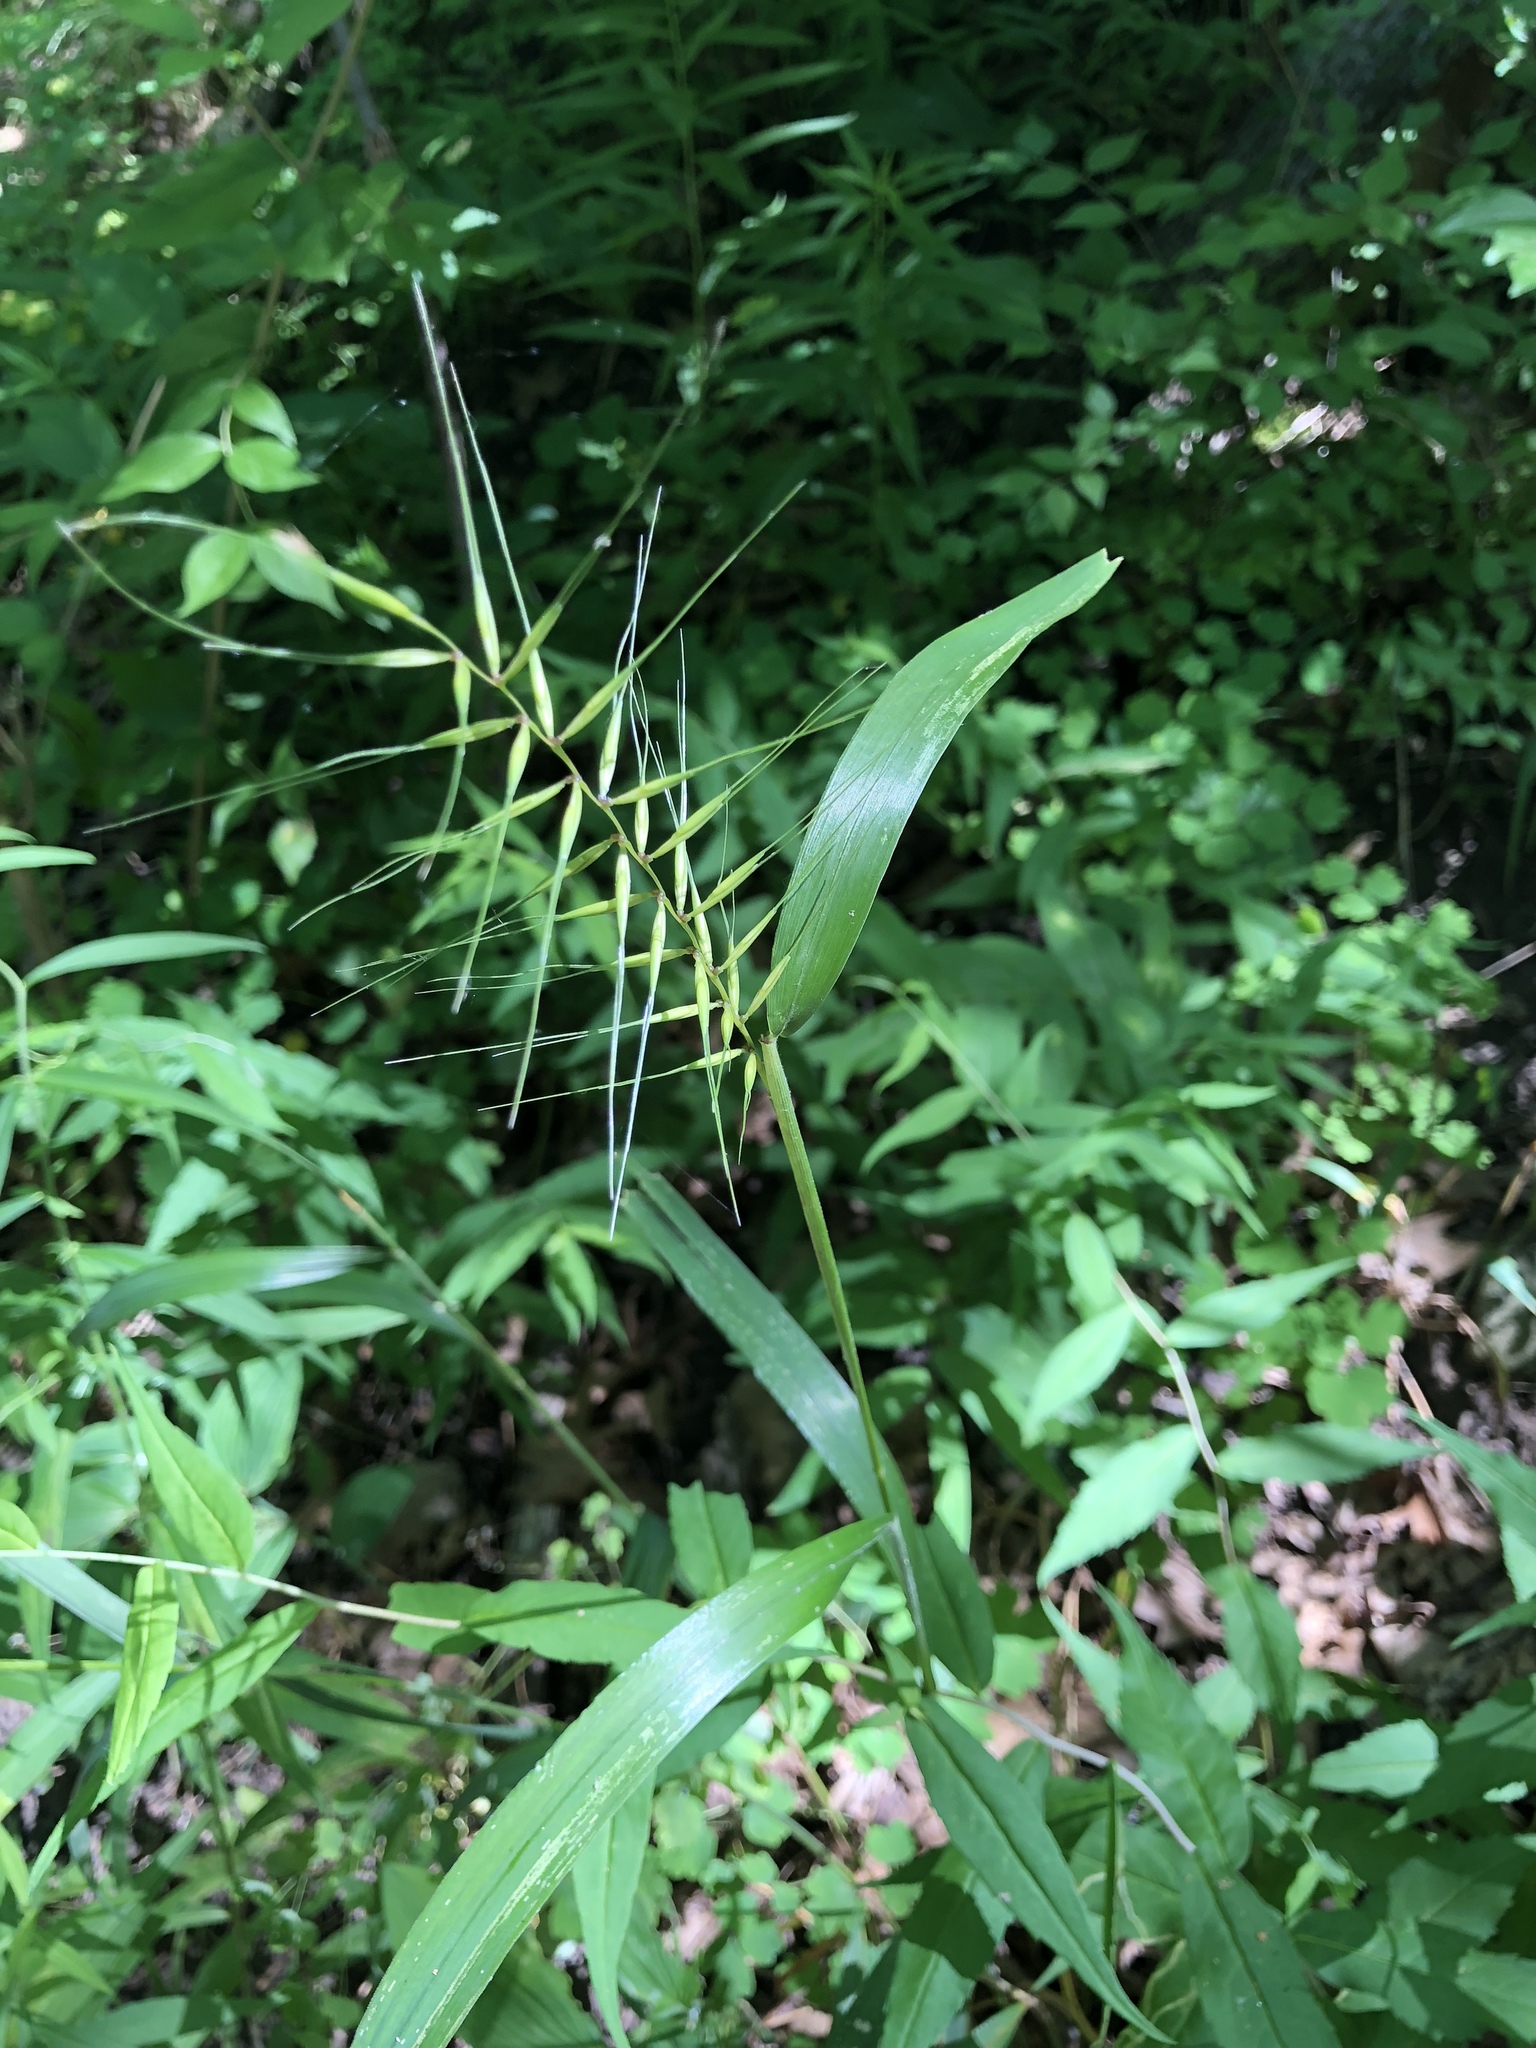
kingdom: Plantae
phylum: Tracheophyta
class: Liliopsida
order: Poales
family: Poaceae
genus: Elymus
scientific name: Elymus hystrix
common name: Bottlebrush grass
